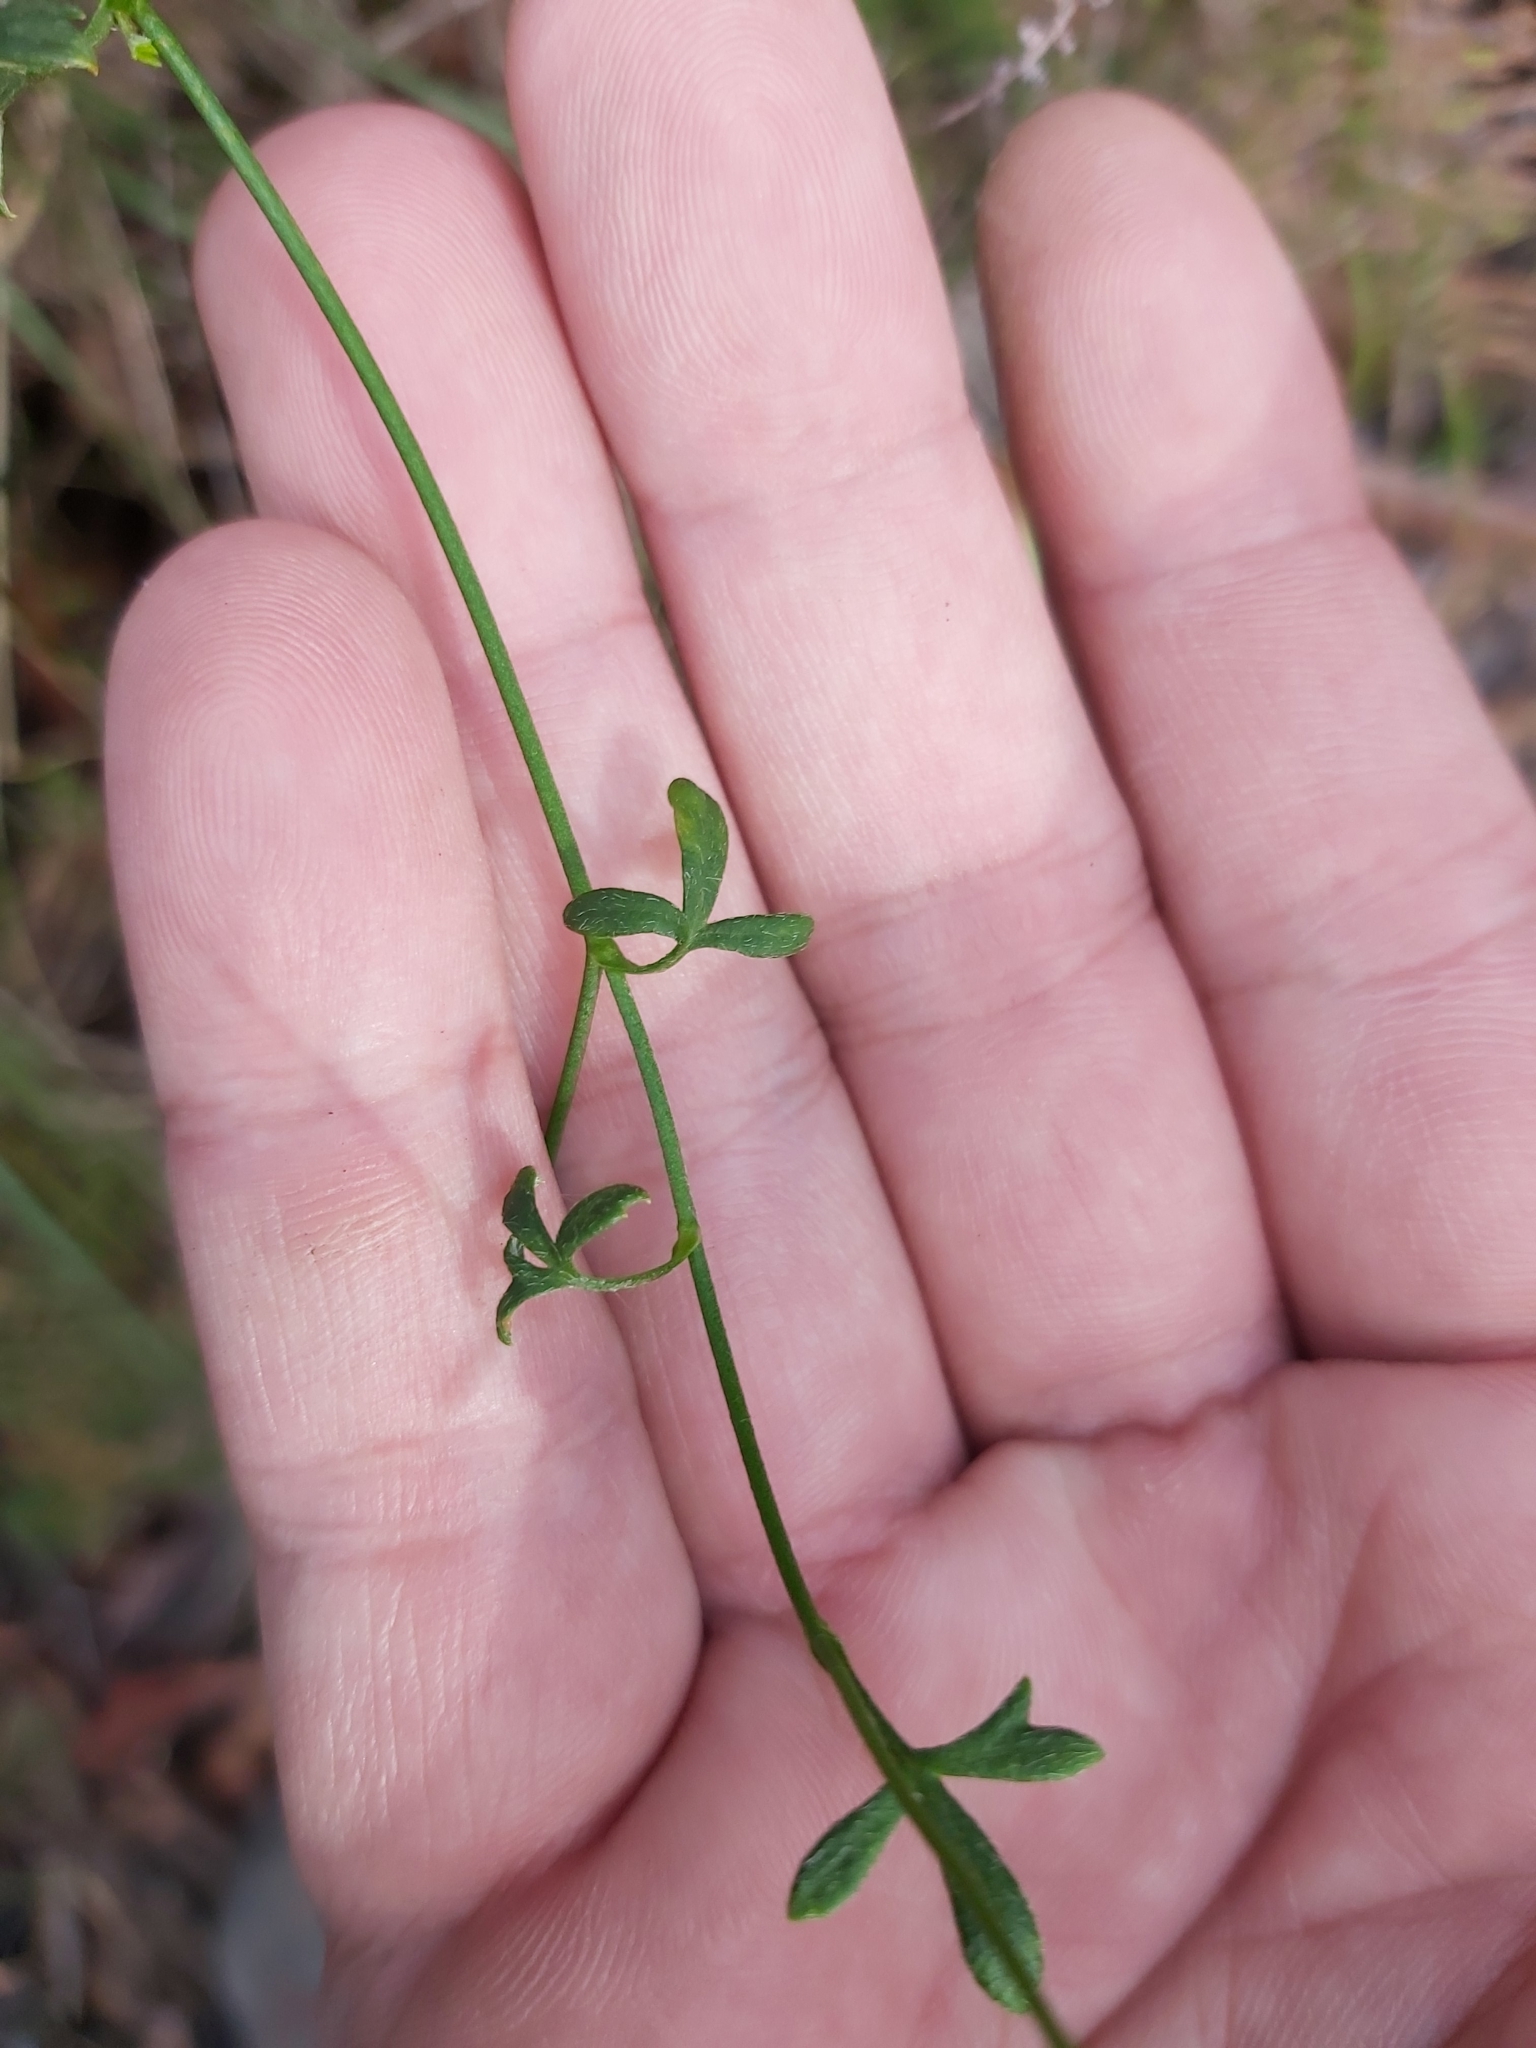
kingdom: Plantae
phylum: Tracheophyta
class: Magnoliopsida
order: Apiales
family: Apiaceae
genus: Actinotus
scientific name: Actinotus minor
